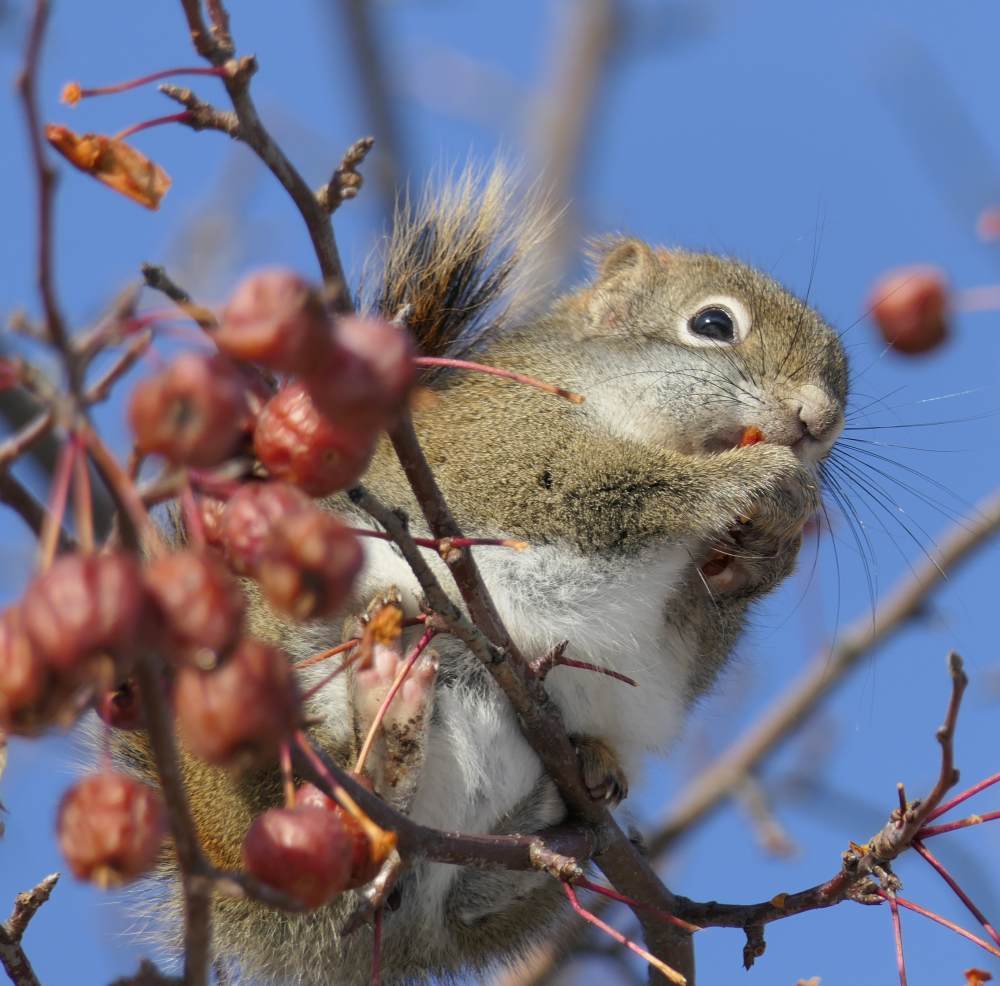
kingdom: Animalia
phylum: Chordata
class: Mammalia
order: Rodentia
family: Sciuridae
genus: Tamiasciurus
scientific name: Tamiasciurus hudsonicus
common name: Red squirrel
